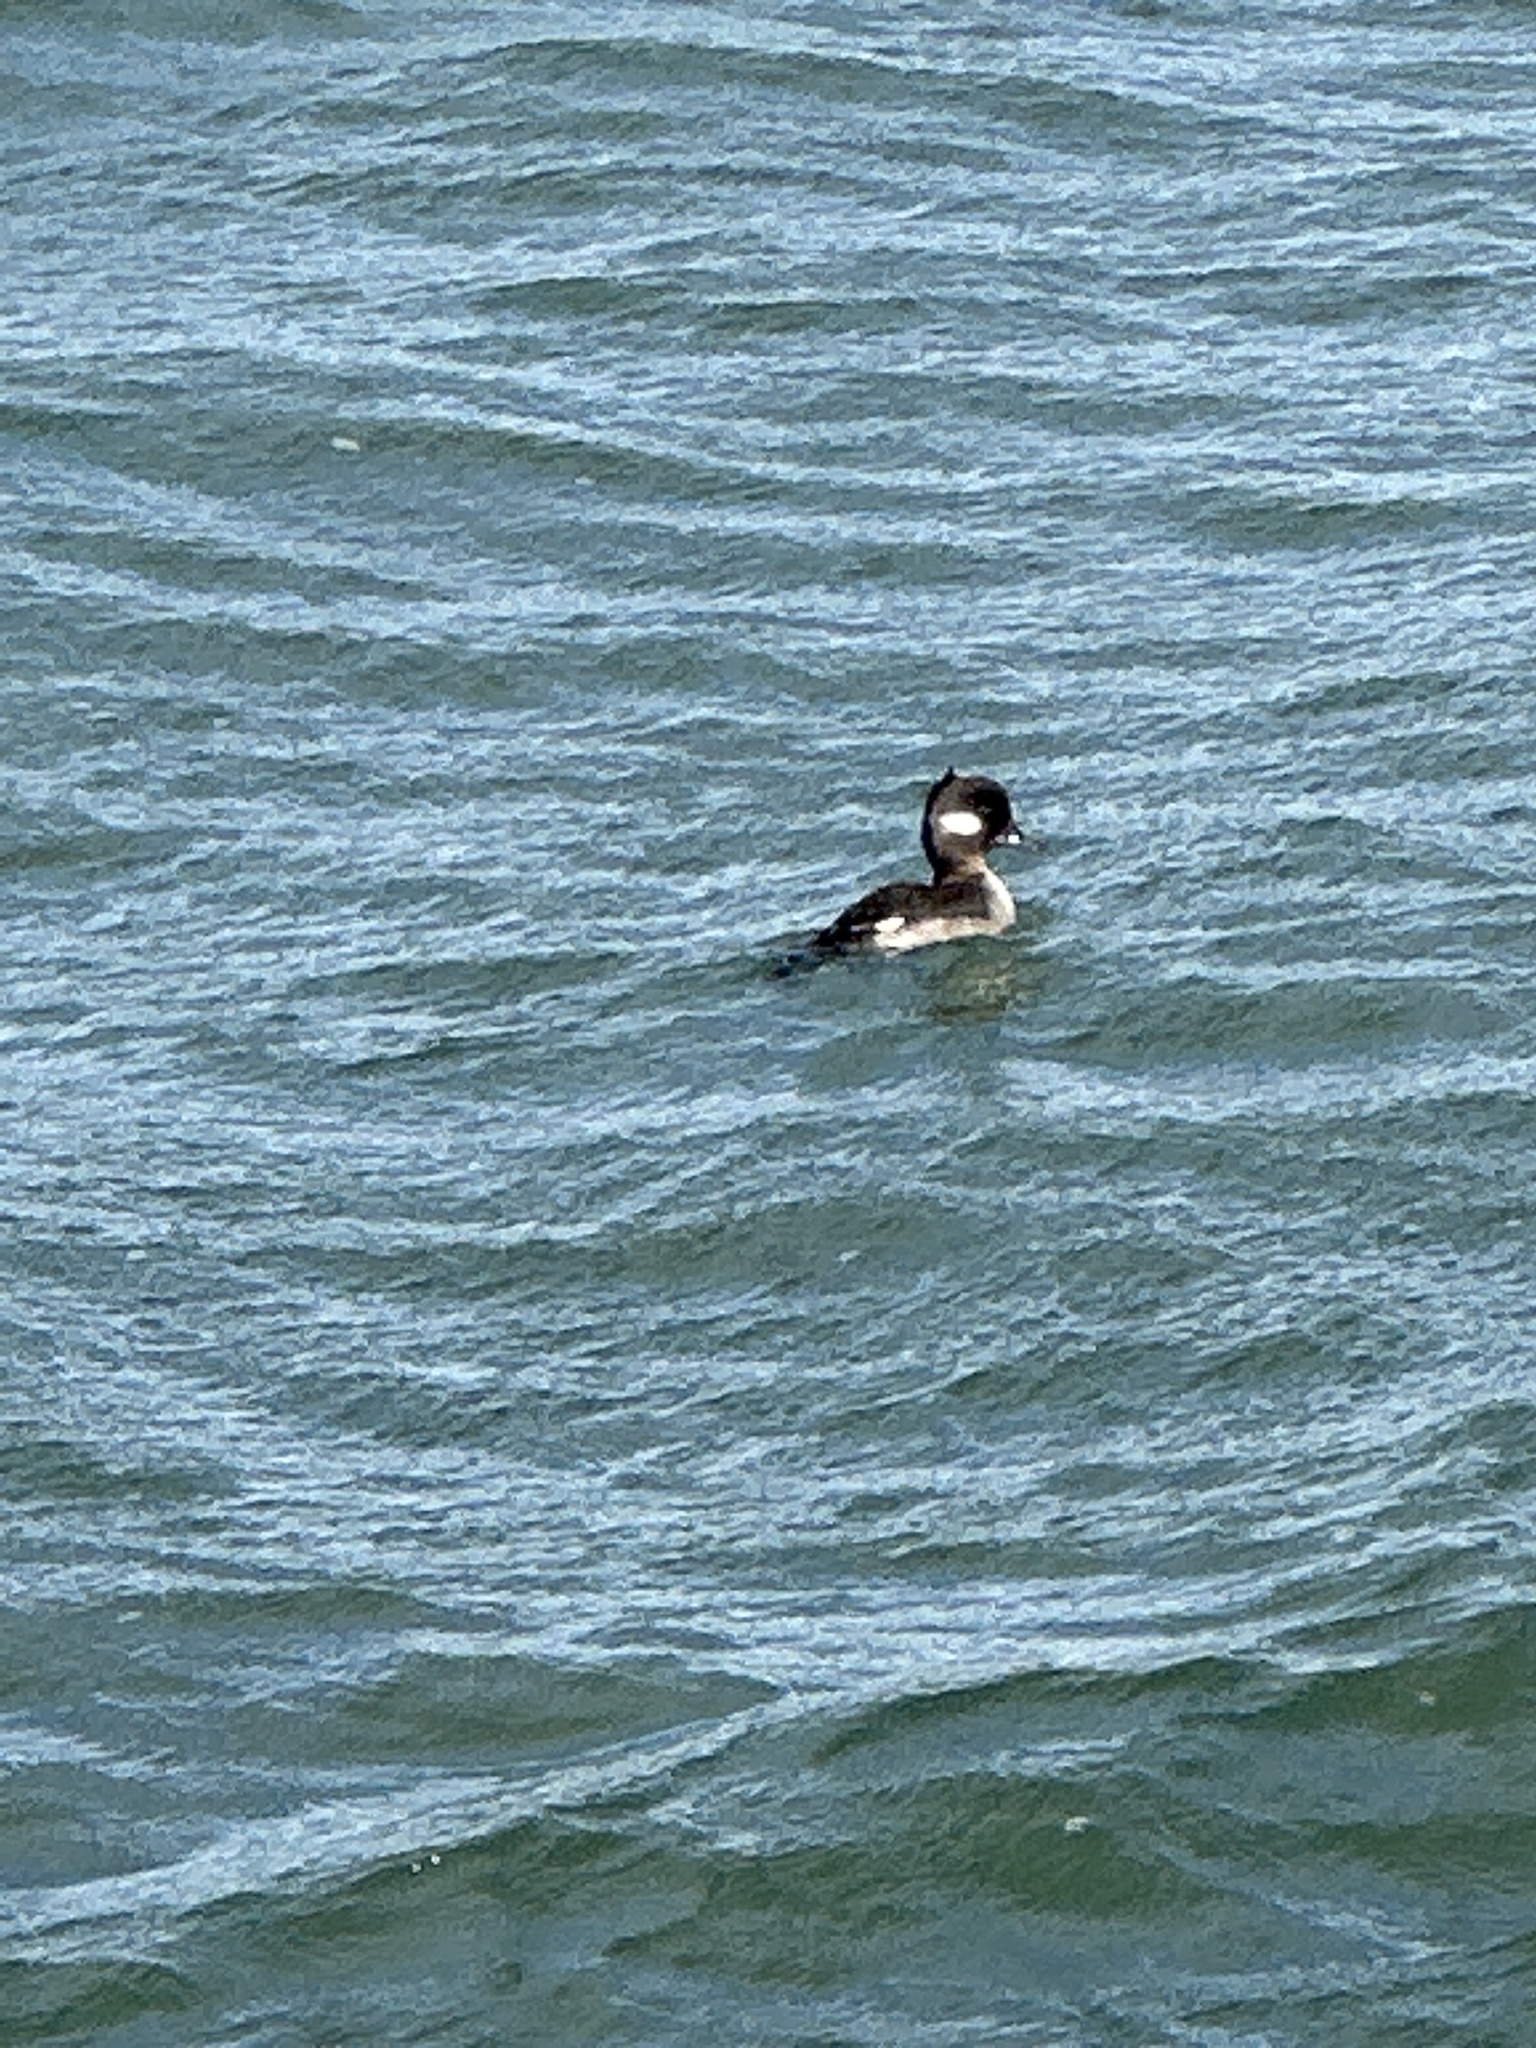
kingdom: Animalia
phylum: Chordata
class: Aves
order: Anseriformes
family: Anatidae
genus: Bucephala
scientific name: Bucephala albeola
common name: Bufflehead
